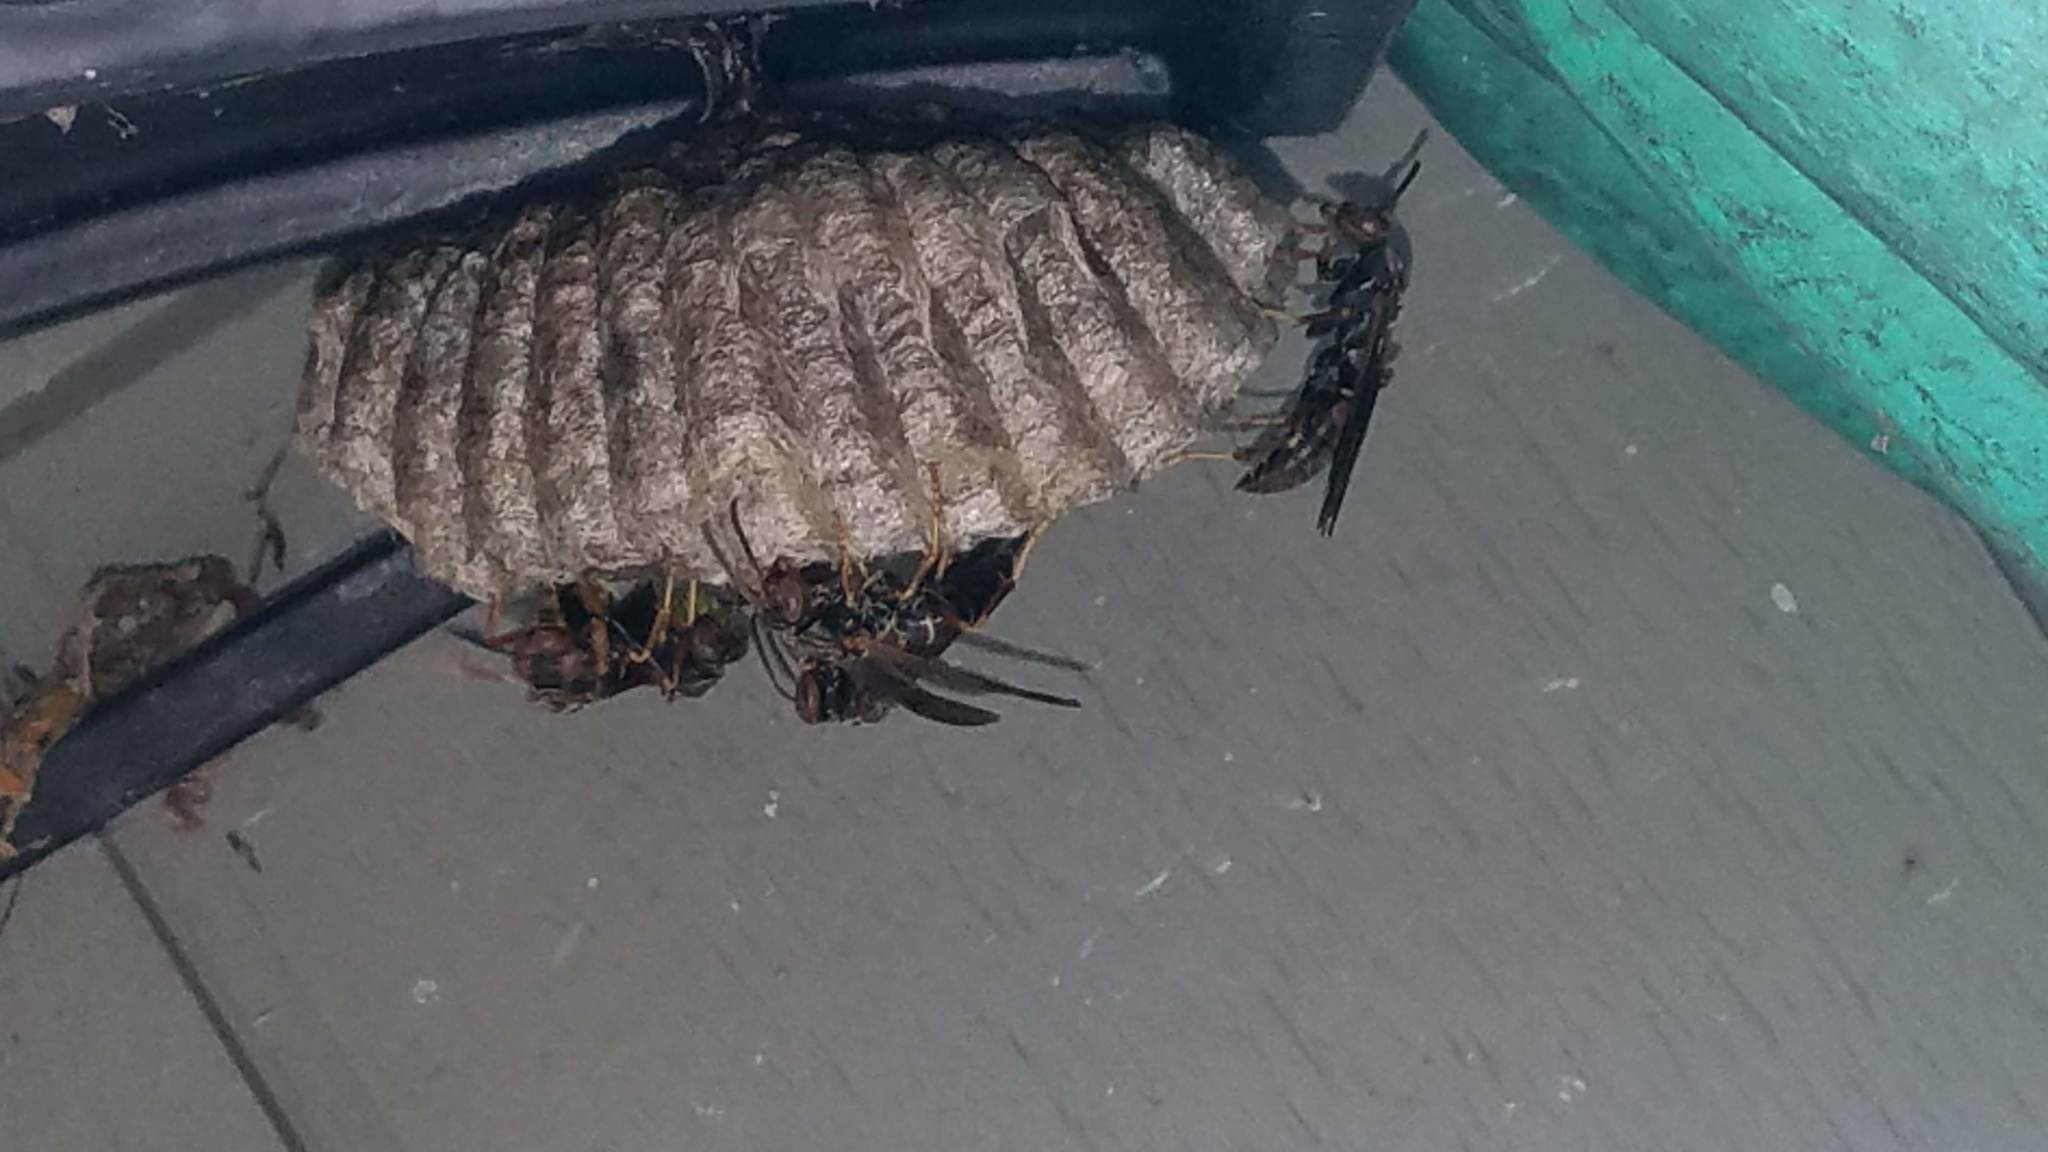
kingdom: Animalia
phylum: Arthropoda
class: Insecta
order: Hymenoptera
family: Eumenidae
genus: Polistes
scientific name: Polistes fuscatus
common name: Dark paper wasp
